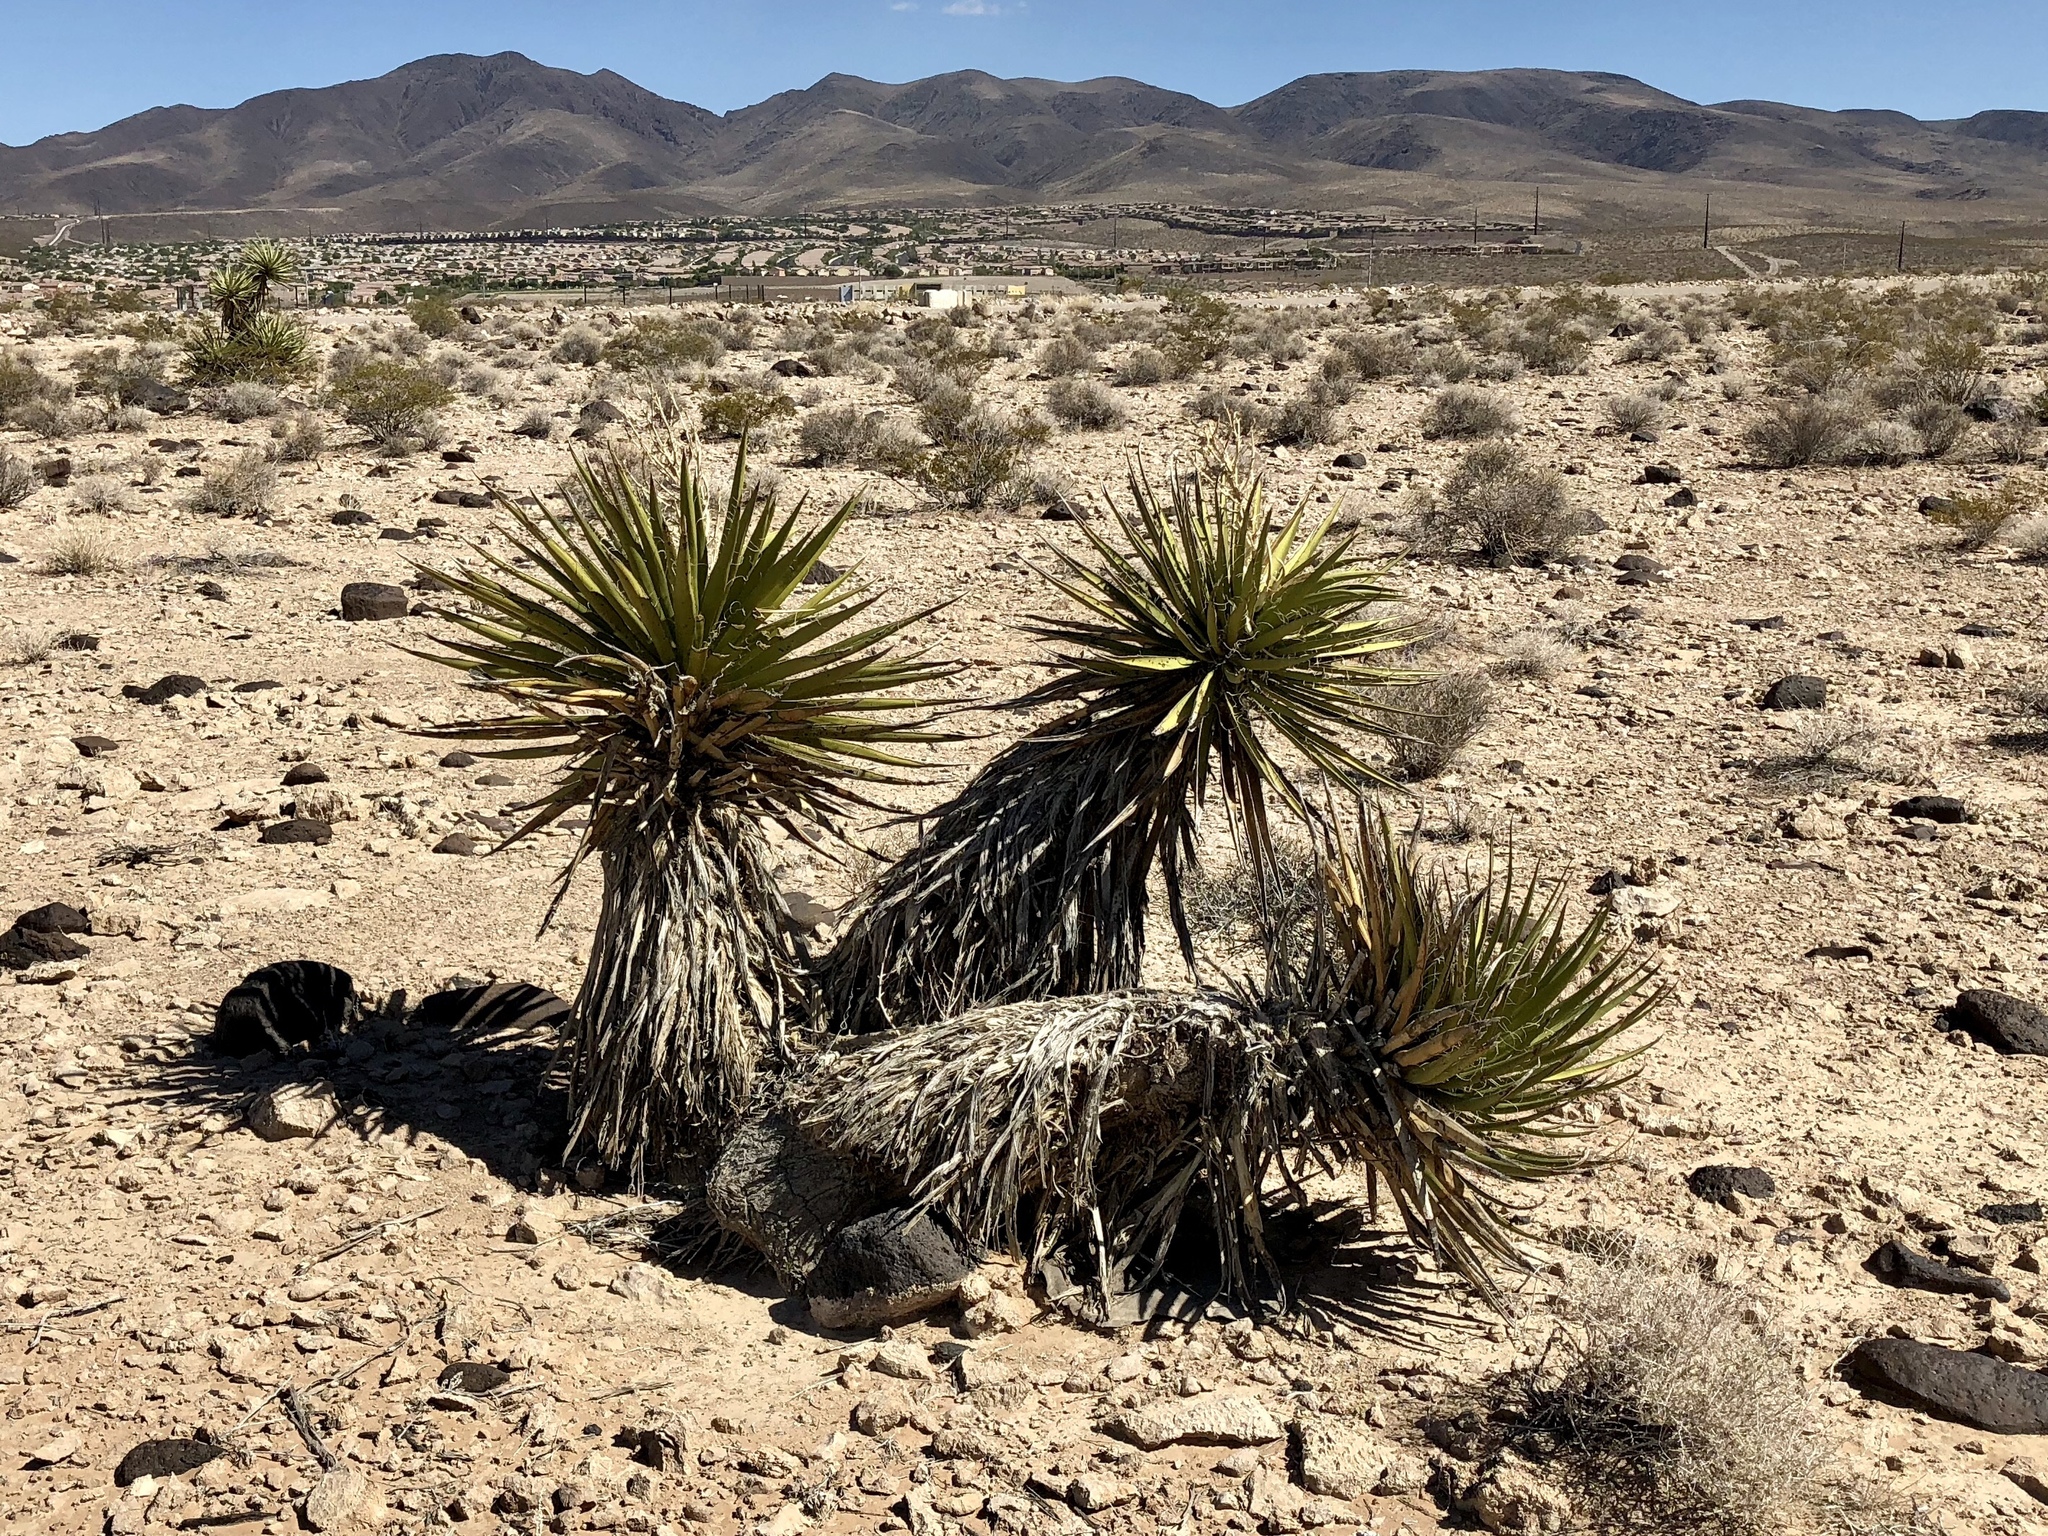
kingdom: Plantae
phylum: Tracheophyta
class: Liliopsida
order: Asparagales
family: Asparagaceae
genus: Yucca
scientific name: Yucca schidigera
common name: Mojave yucca
